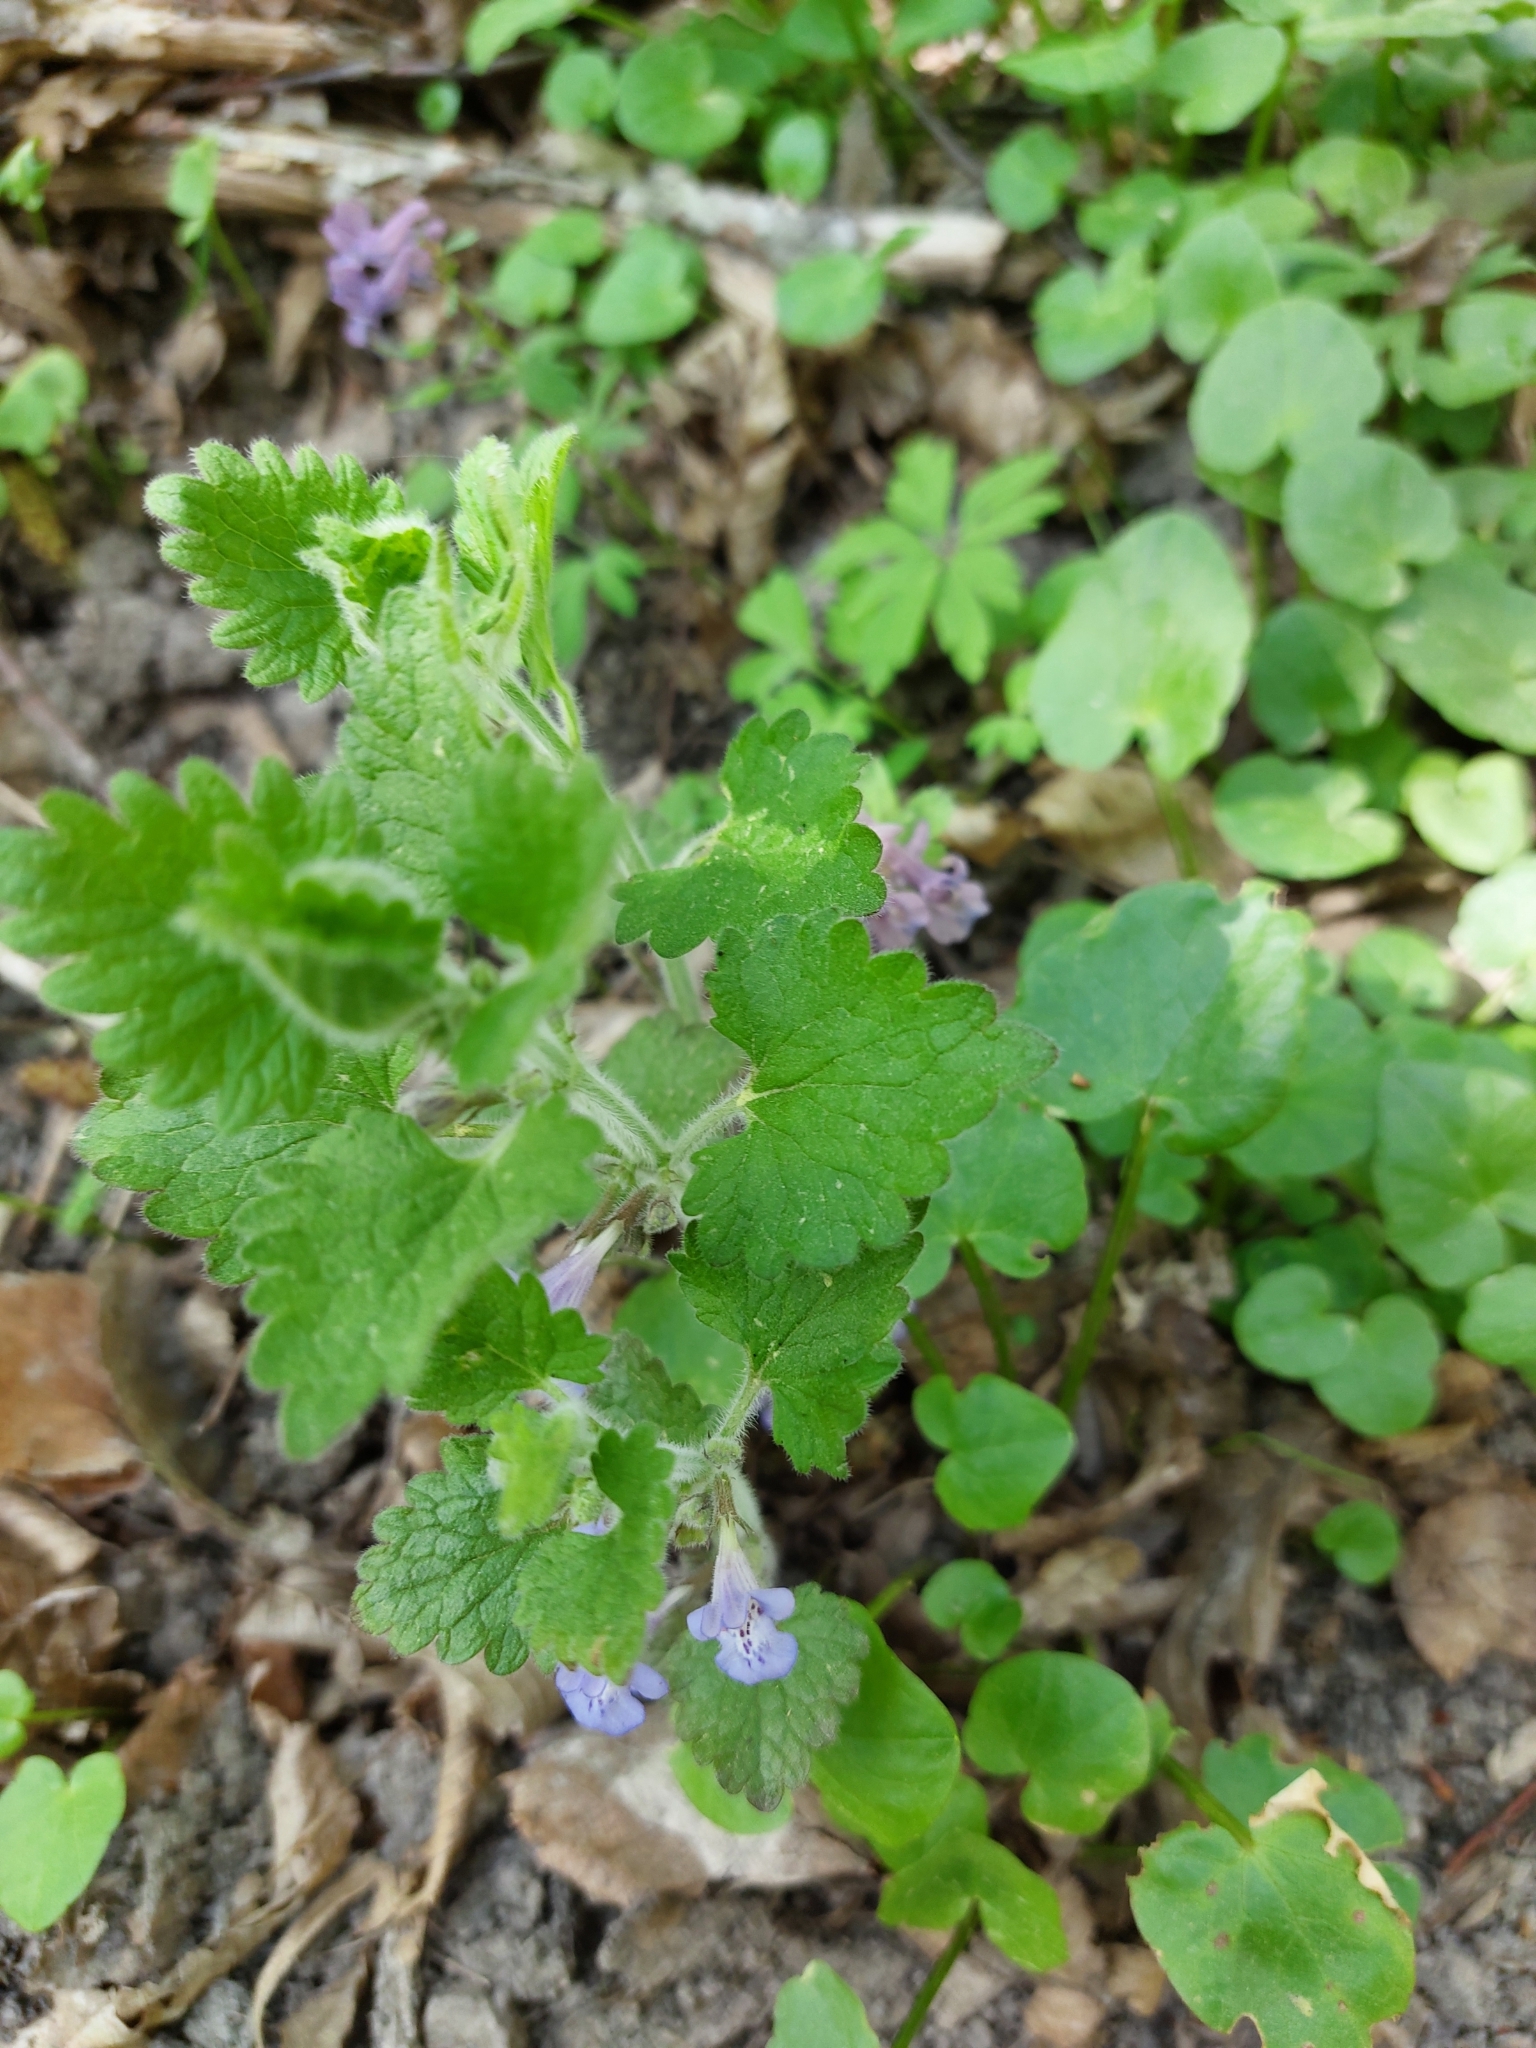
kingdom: Plantae
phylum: Tracheophyta
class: Magnoliopsida
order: Lamiales
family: Lamiaceae
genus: Glechoma
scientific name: Glechoma hirsuta
